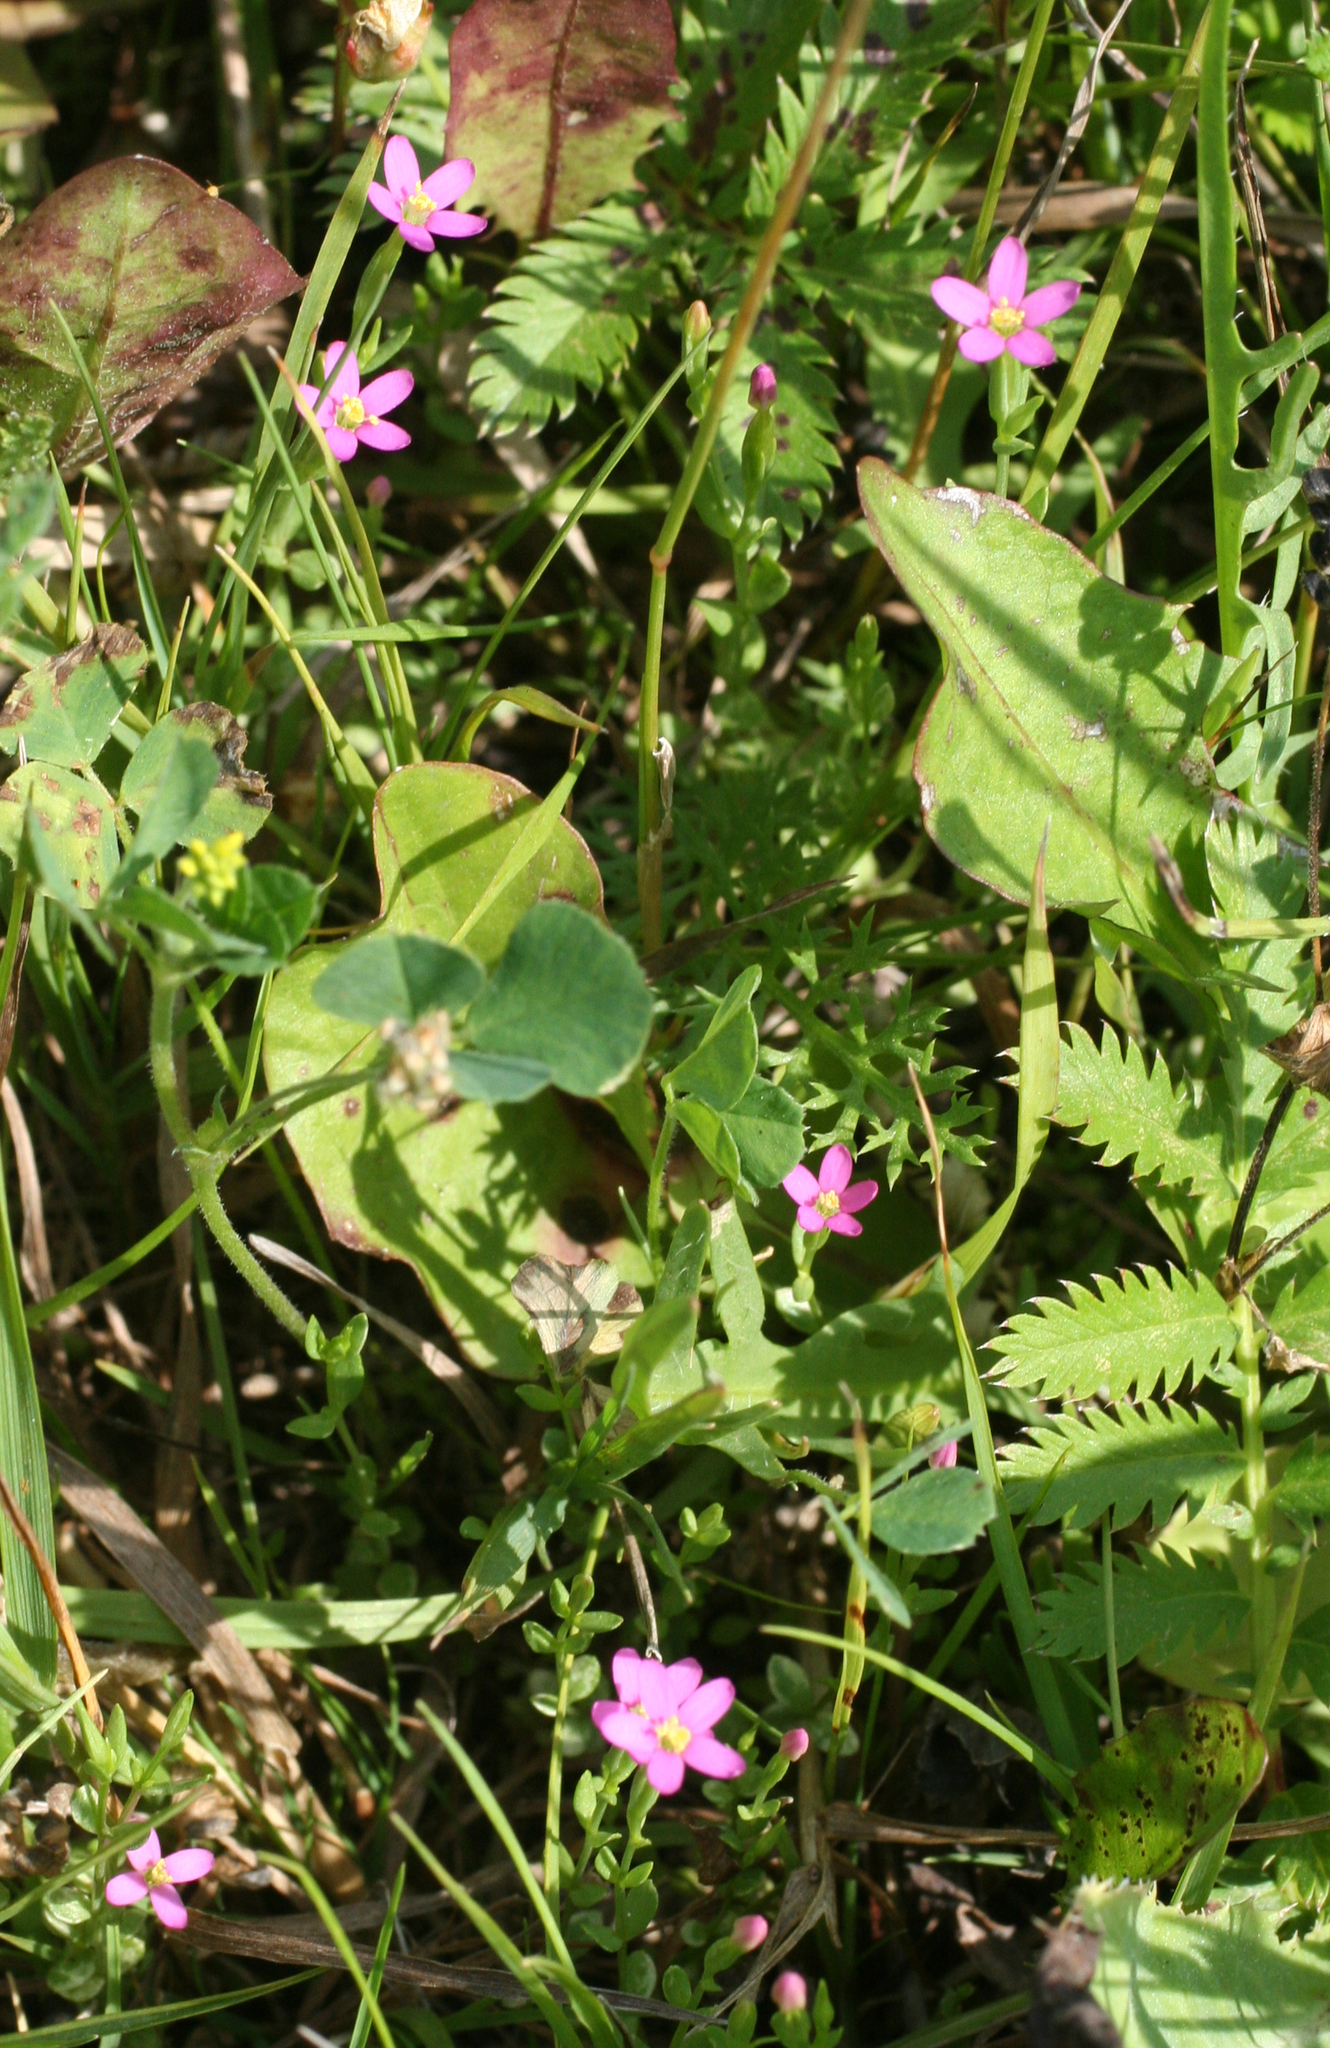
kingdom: Plantae
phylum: Tracheophyta
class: Magnoliopsida
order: Gentianales
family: Gentianaceae
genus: Centaurium
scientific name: Centaurium pulchellum
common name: Lesser centaury
